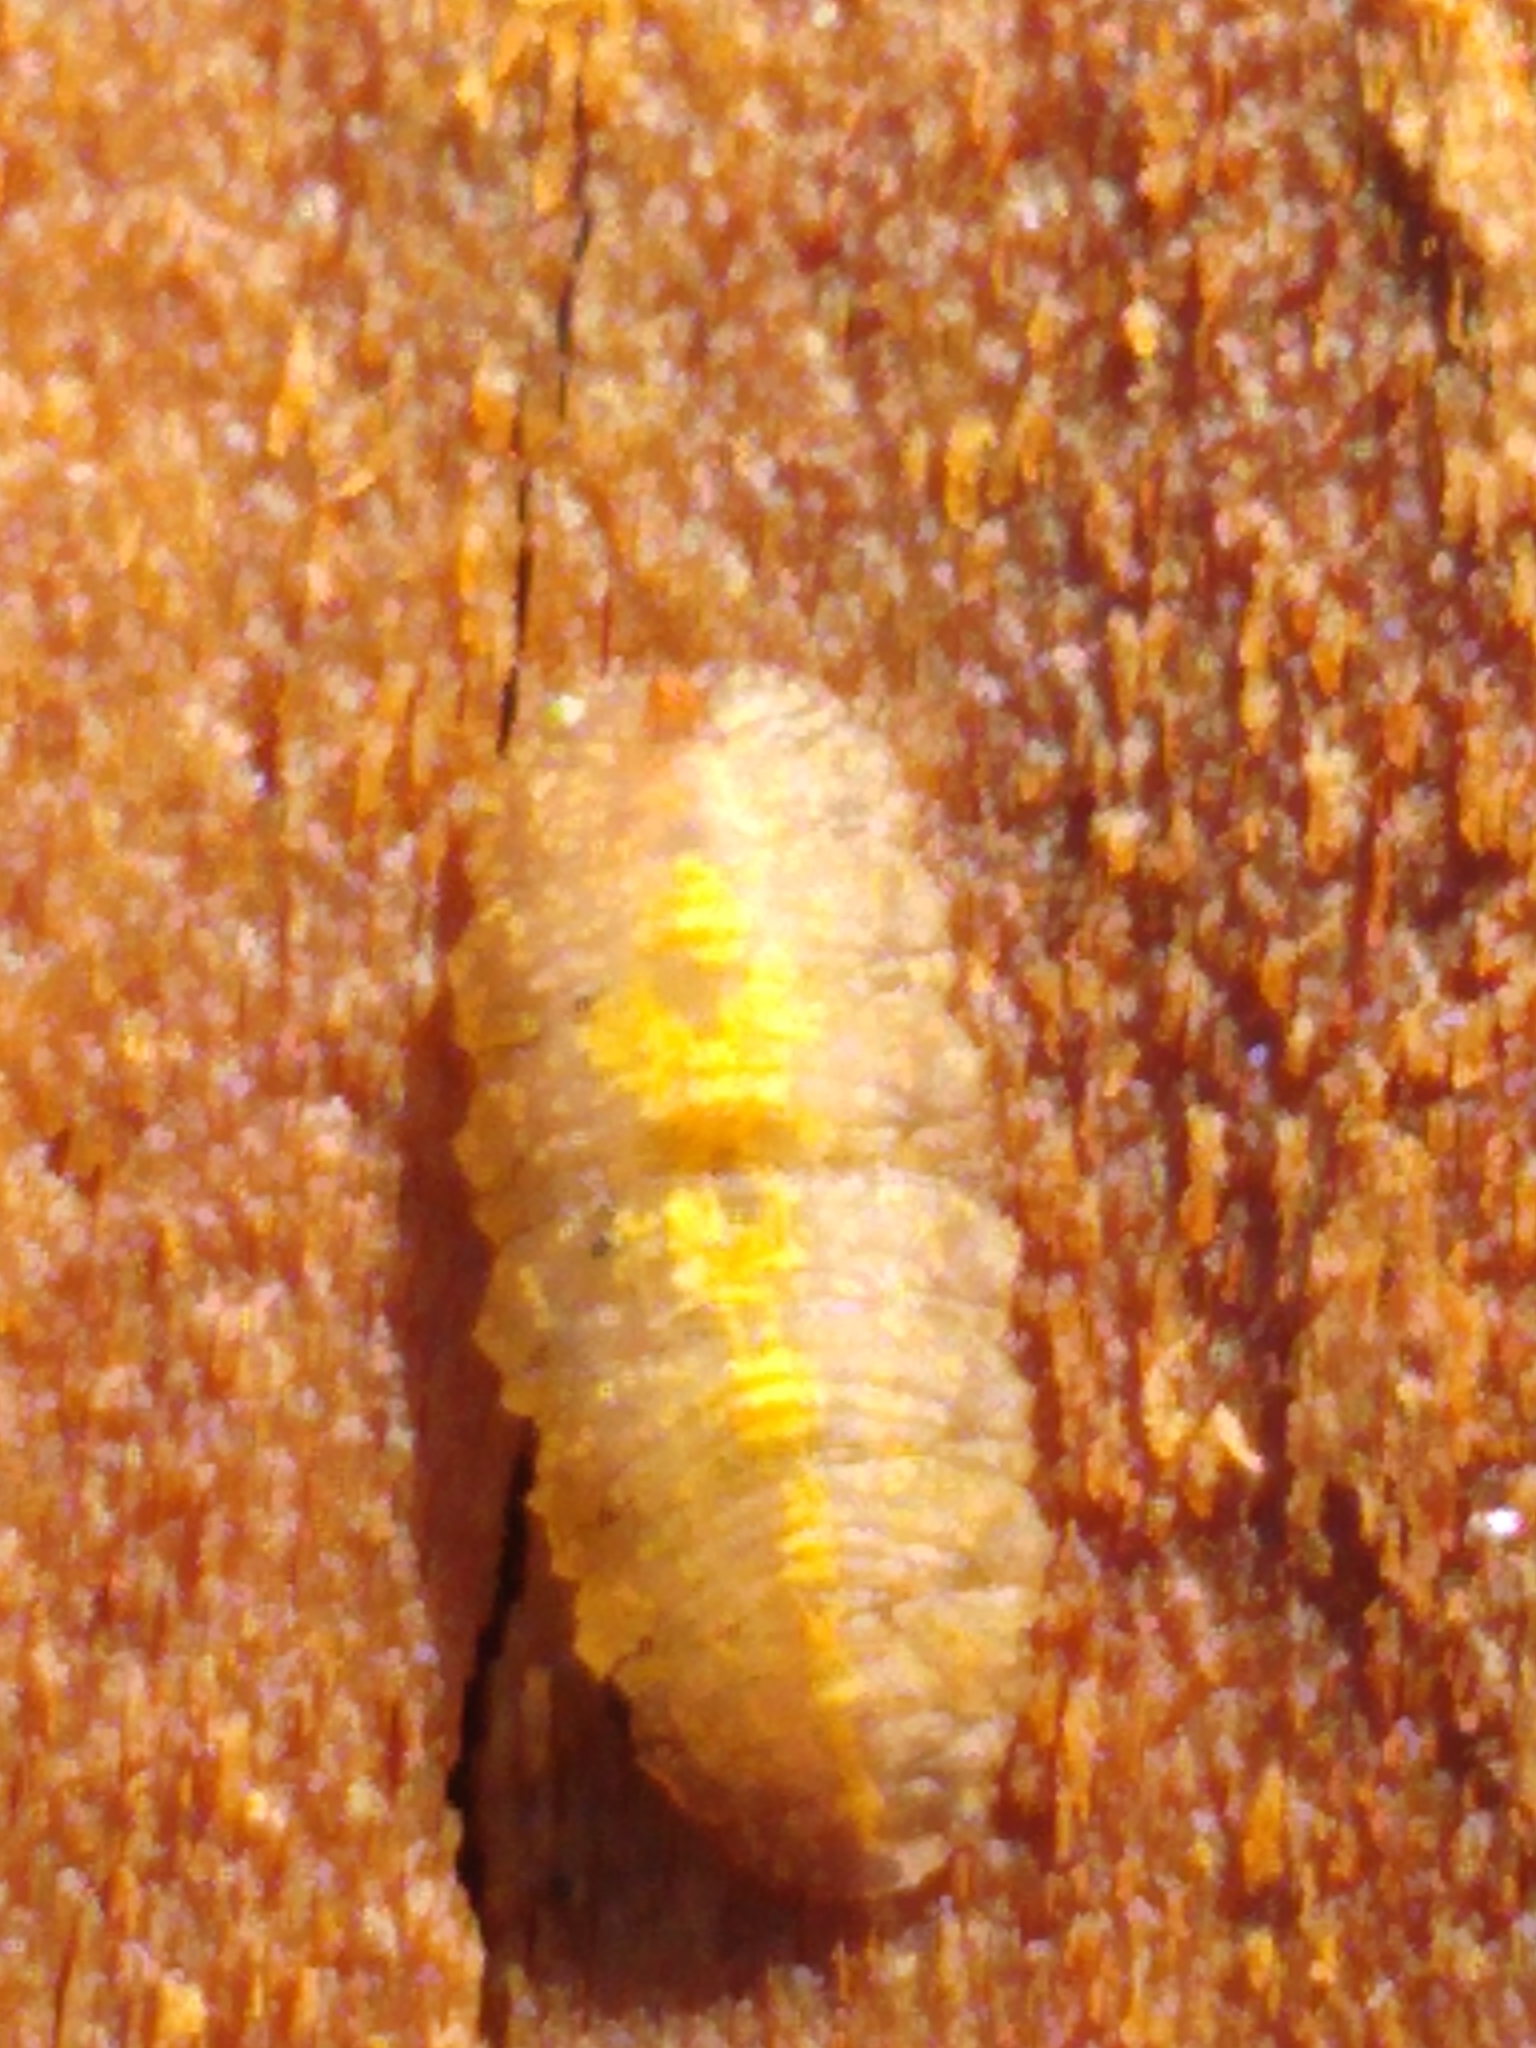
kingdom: Animalia
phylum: Arthropoda
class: Insecta
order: Diptera
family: Syrphidae
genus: Epistrophe
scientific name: Epistrophe
